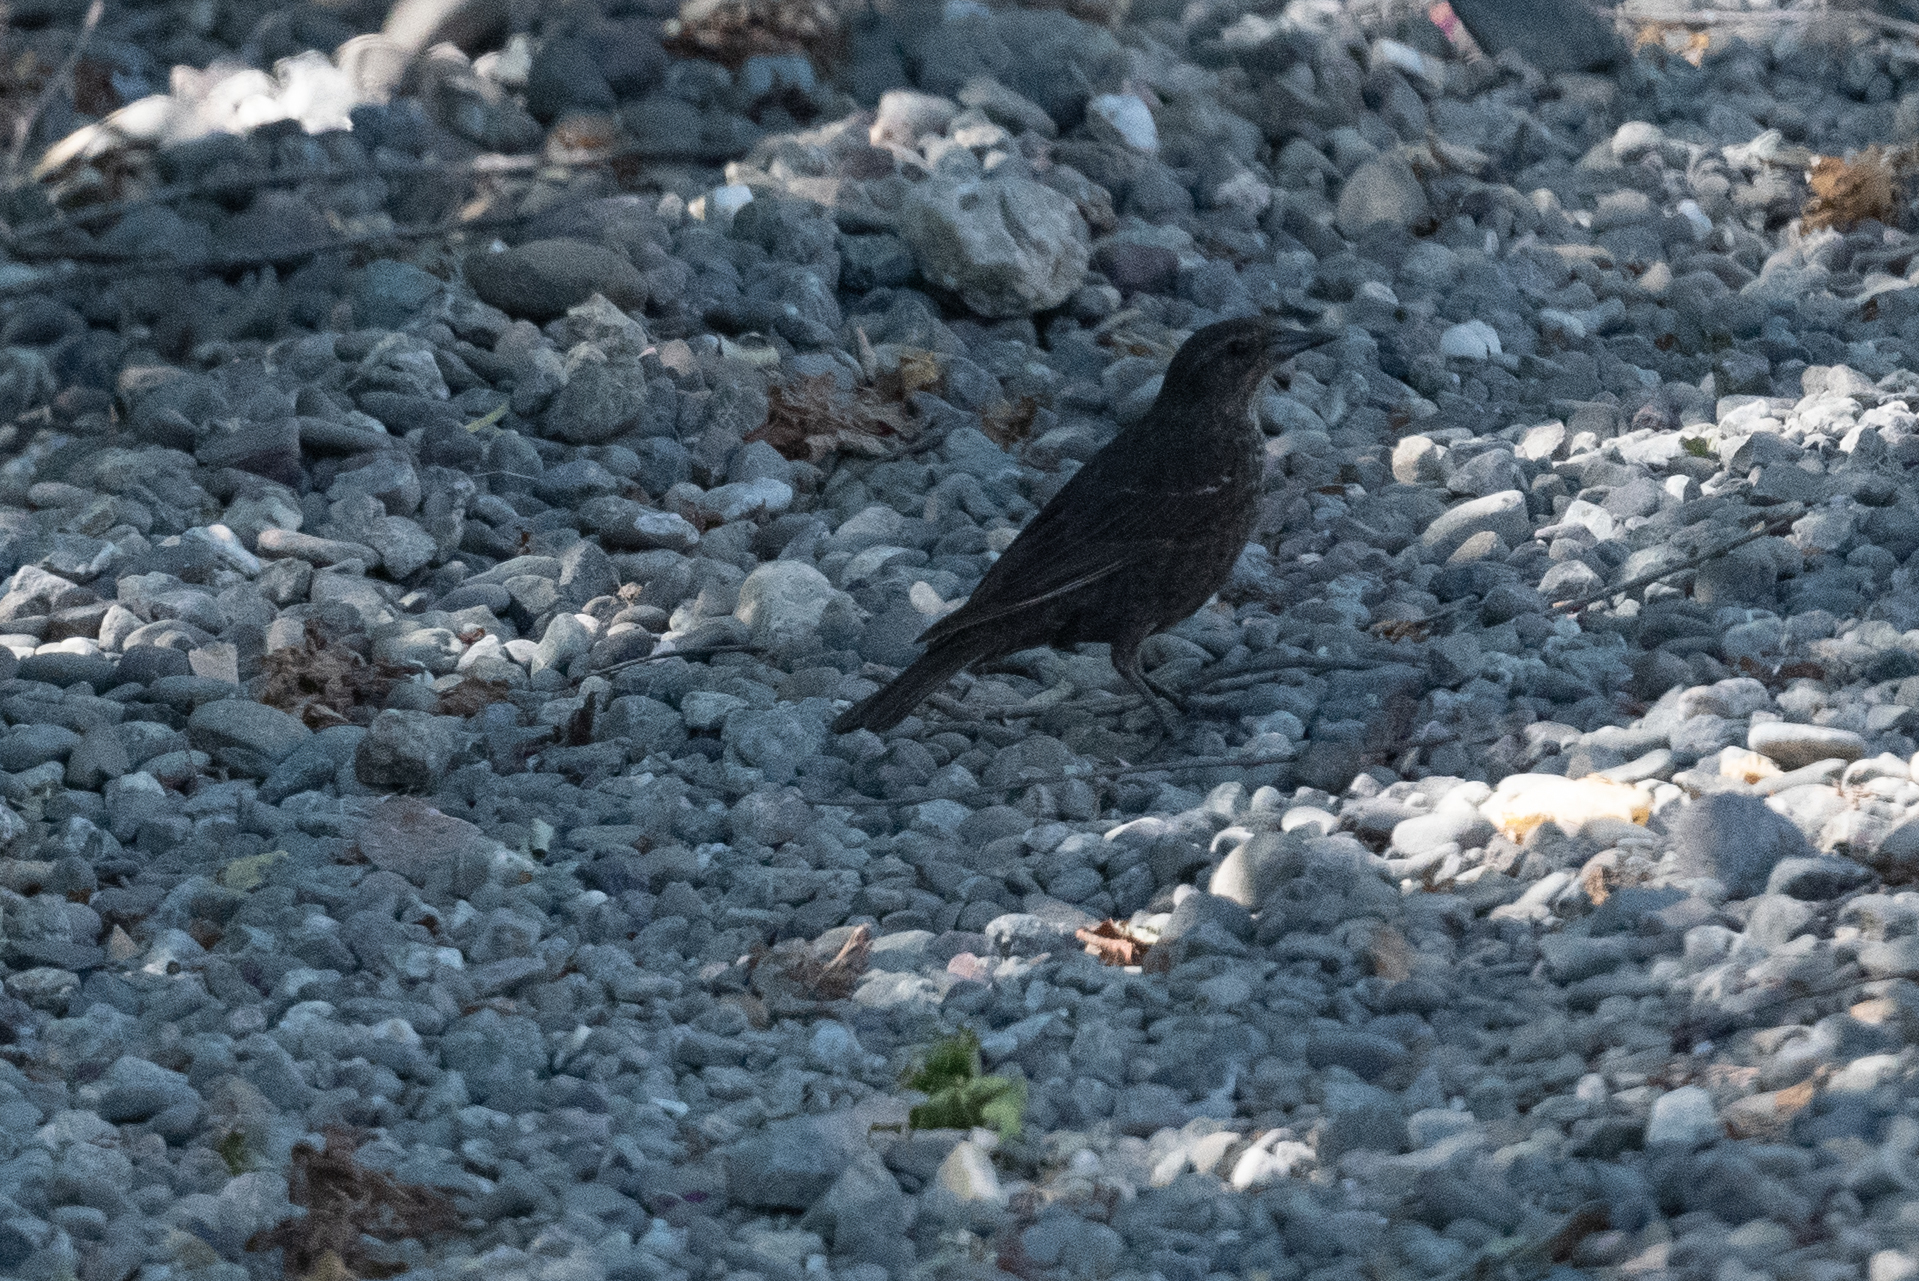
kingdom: Animalia
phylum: Chordata
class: Aves
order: Passeriformes
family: Icteridae
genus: Agelaius
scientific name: Agelaius tricolor
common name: Tricolored blackbird
